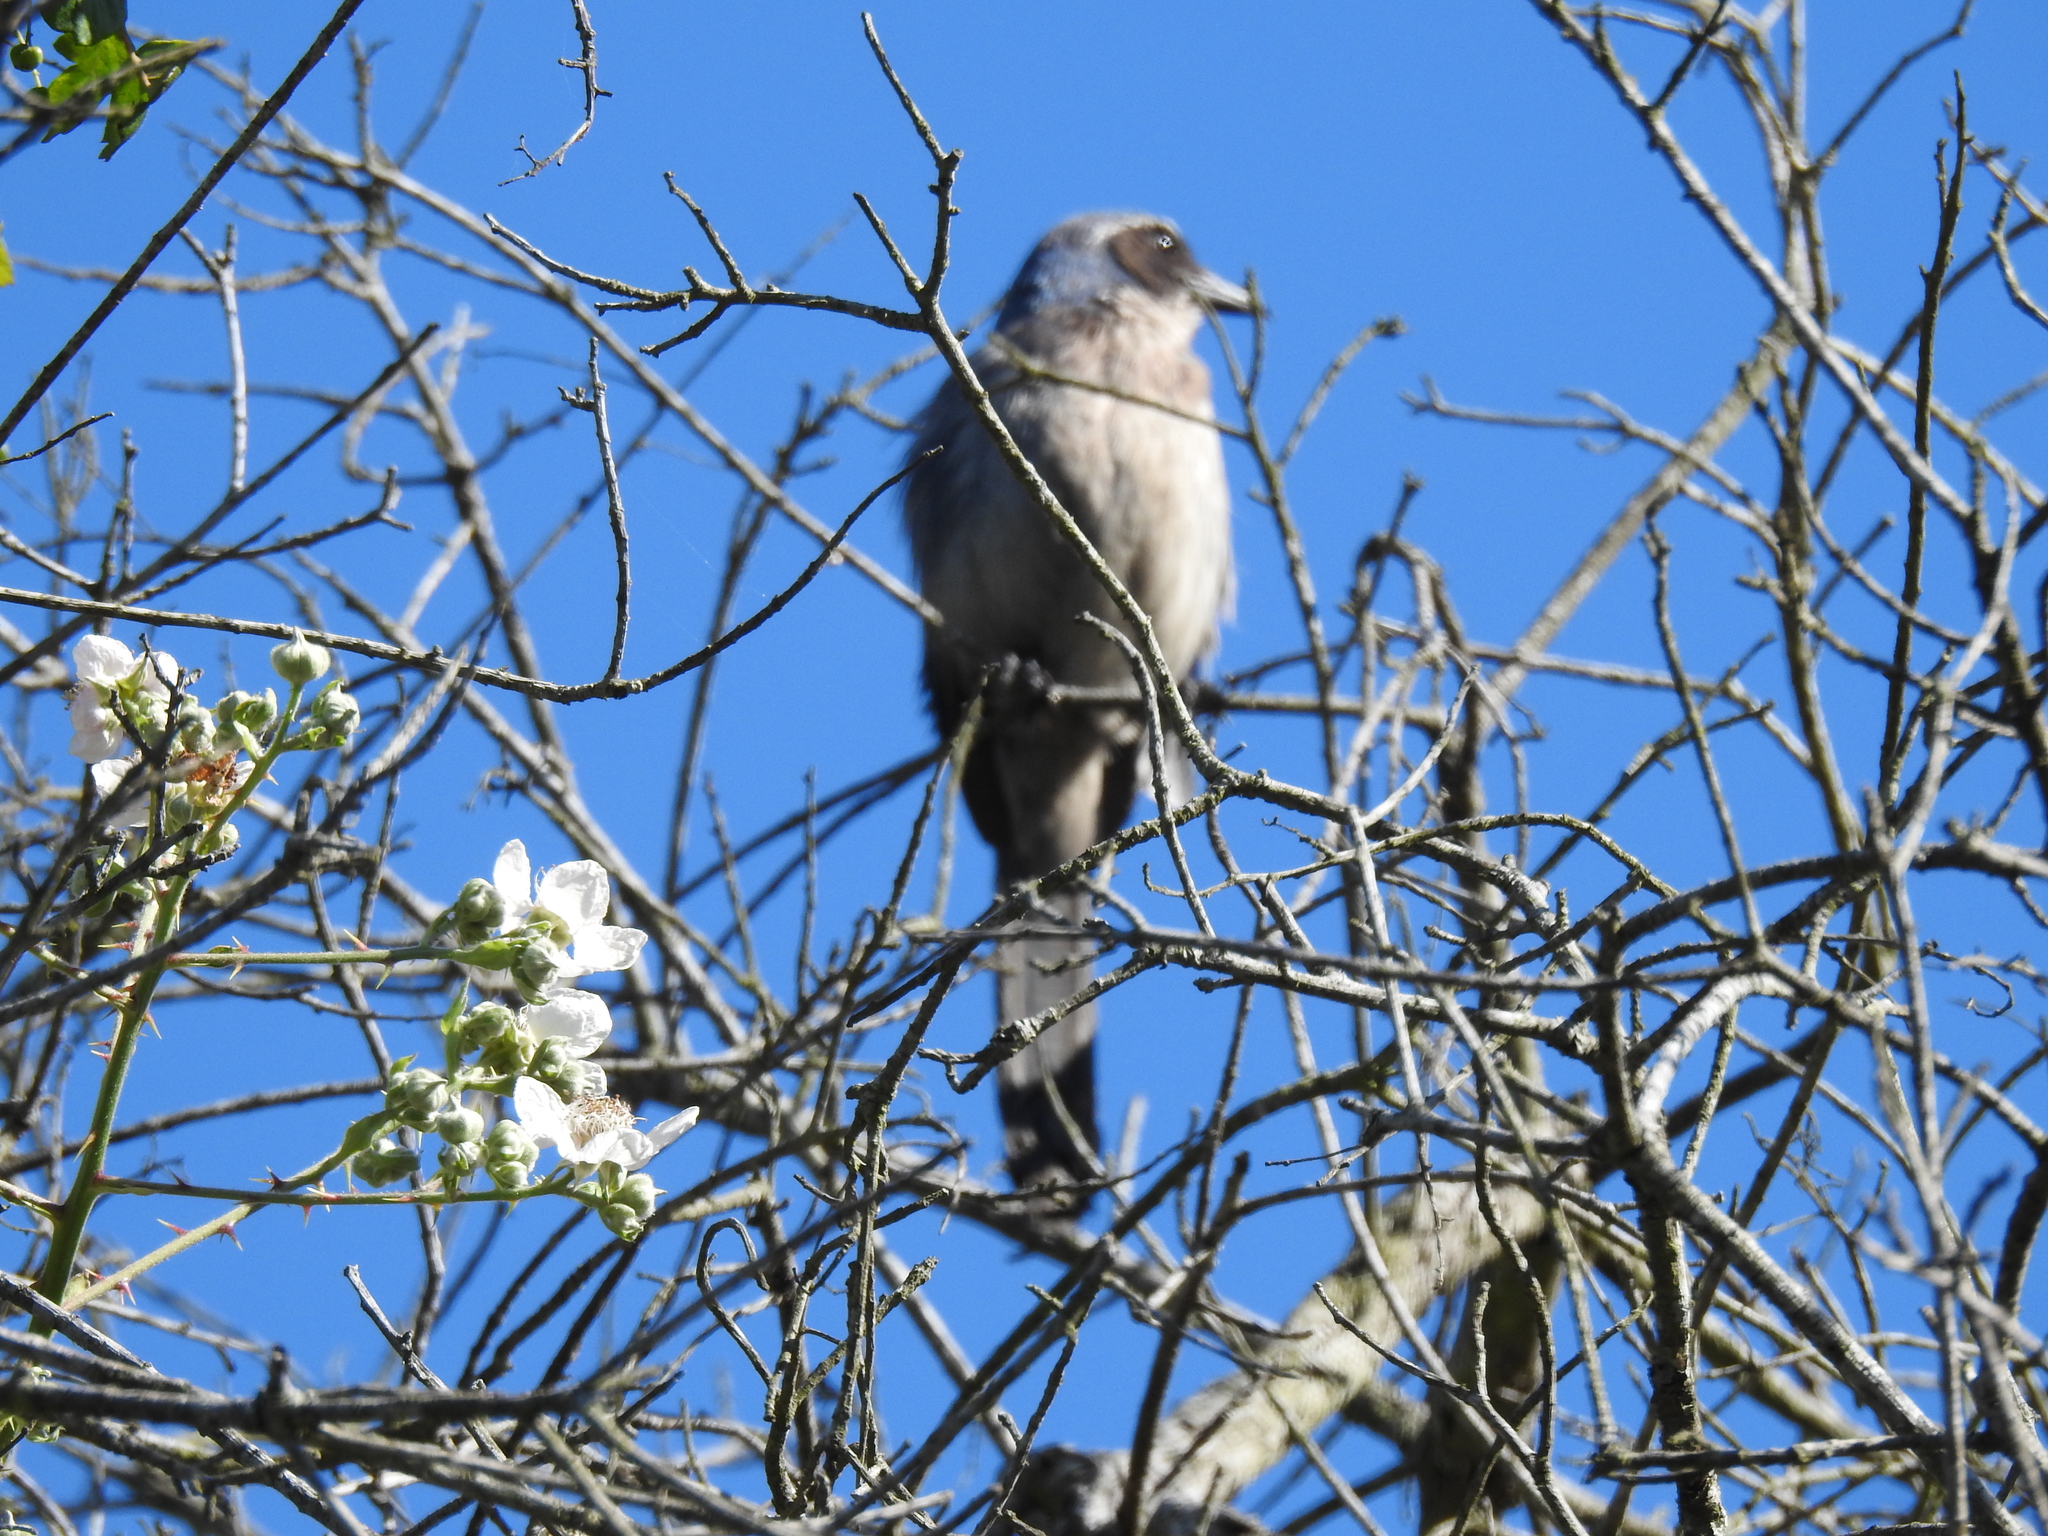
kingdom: Animalia
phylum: Chordata
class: Aves
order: Passeriformes
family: Corvidae
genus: Aphelocoma
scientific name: Aphelocoma californica
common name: California scrub-jay
